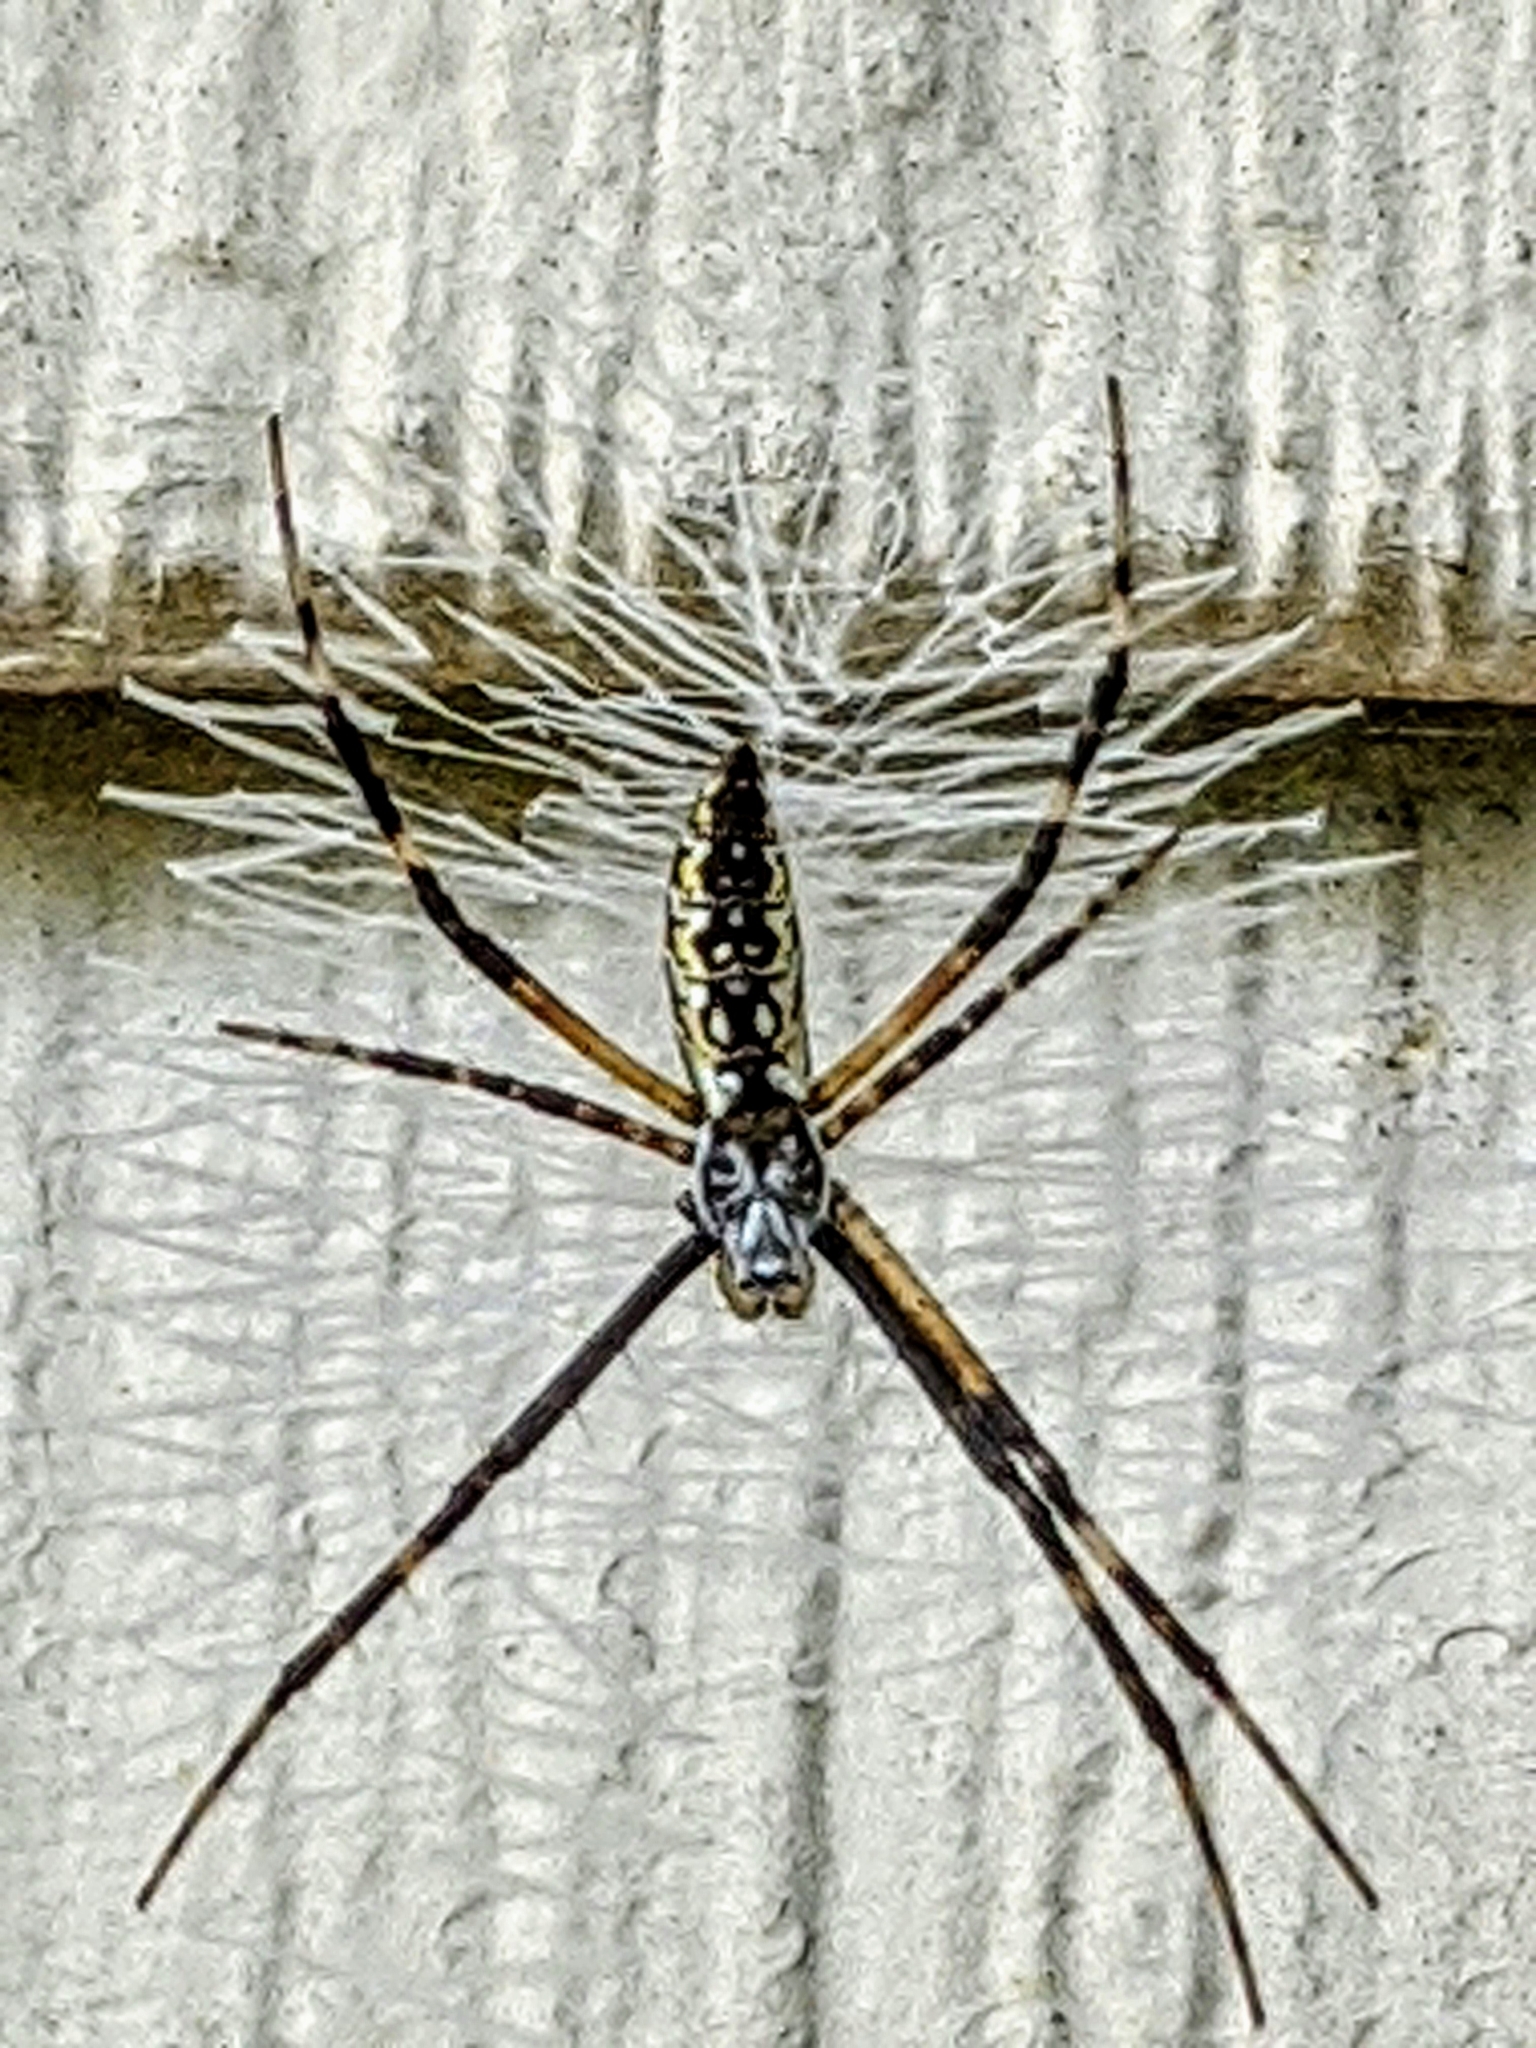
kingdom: Animalia
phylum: Arthropoda
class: Arachnida
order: Araneae
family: Araneidae
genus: Argiope
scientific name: Argiope aurantia
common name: Orb weavers
